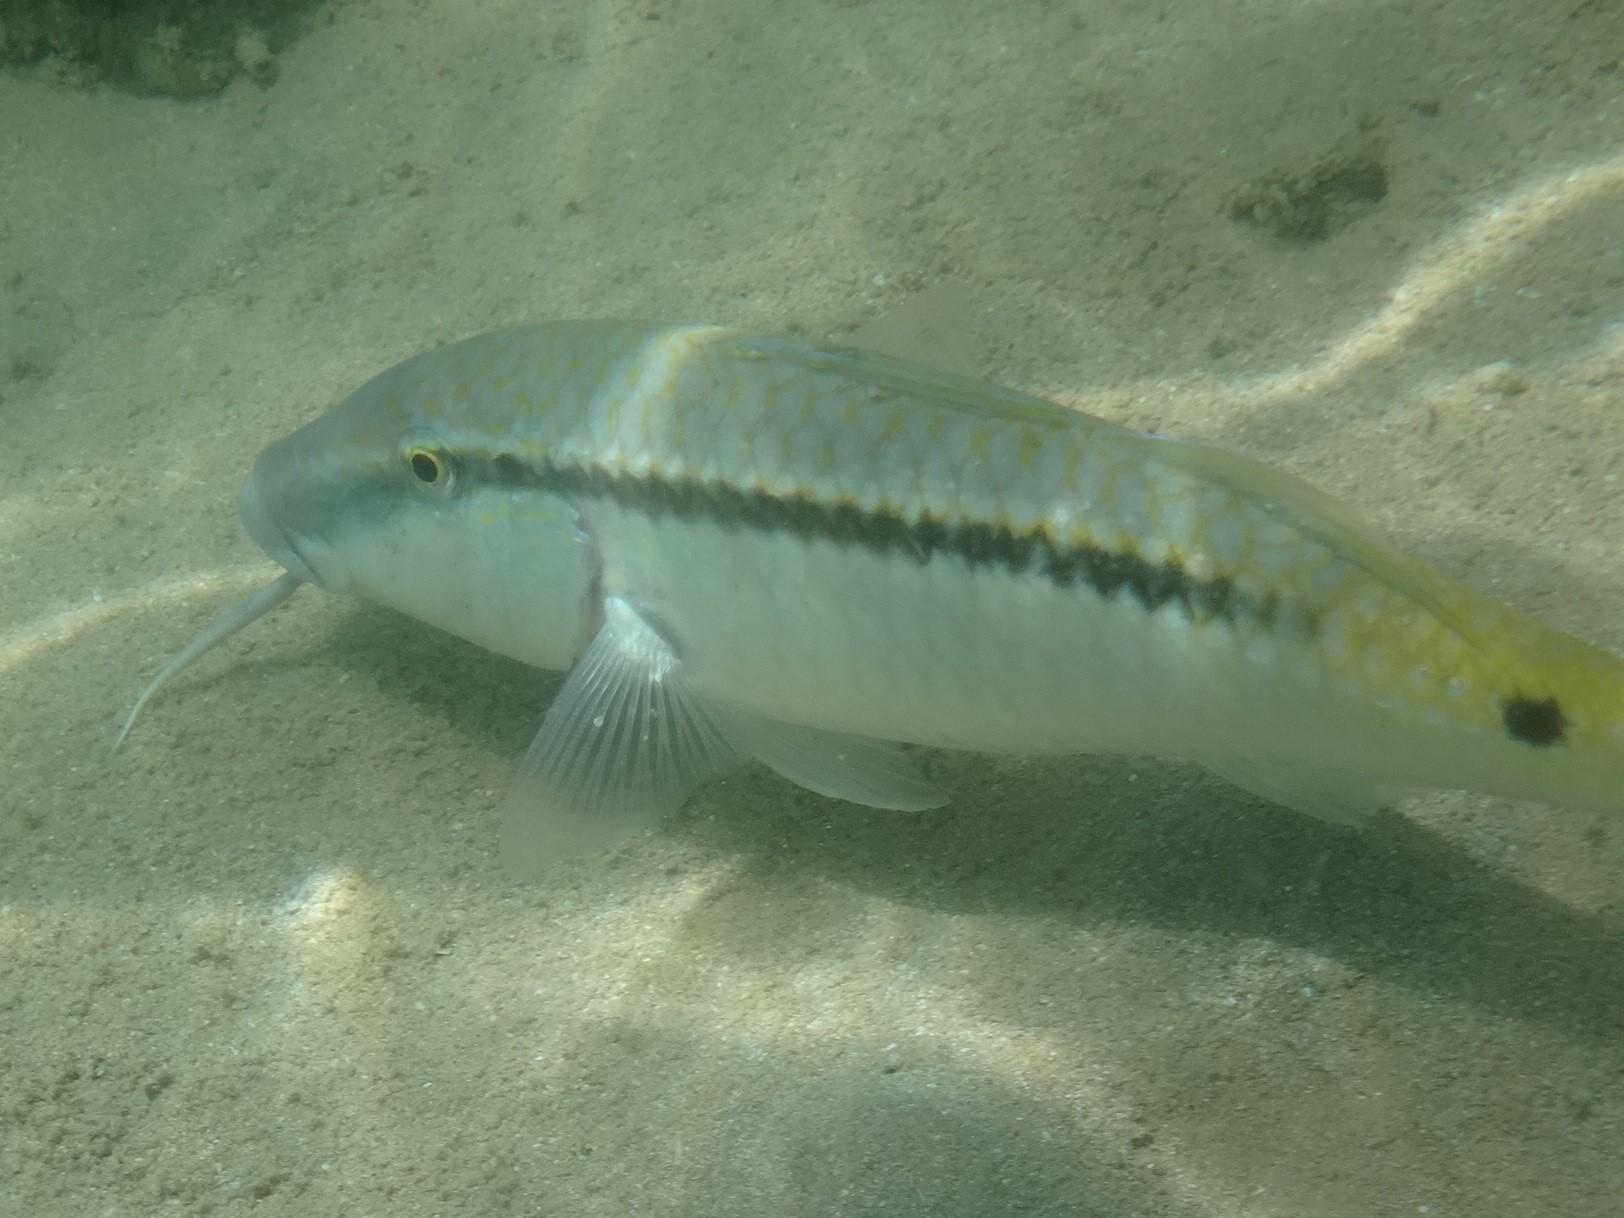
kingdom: Animalia
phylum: Chordata
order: Perciformes
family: Mullidae
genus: Parupeneus
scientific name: Parupeneus forsskali
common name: Red sea goatfish
